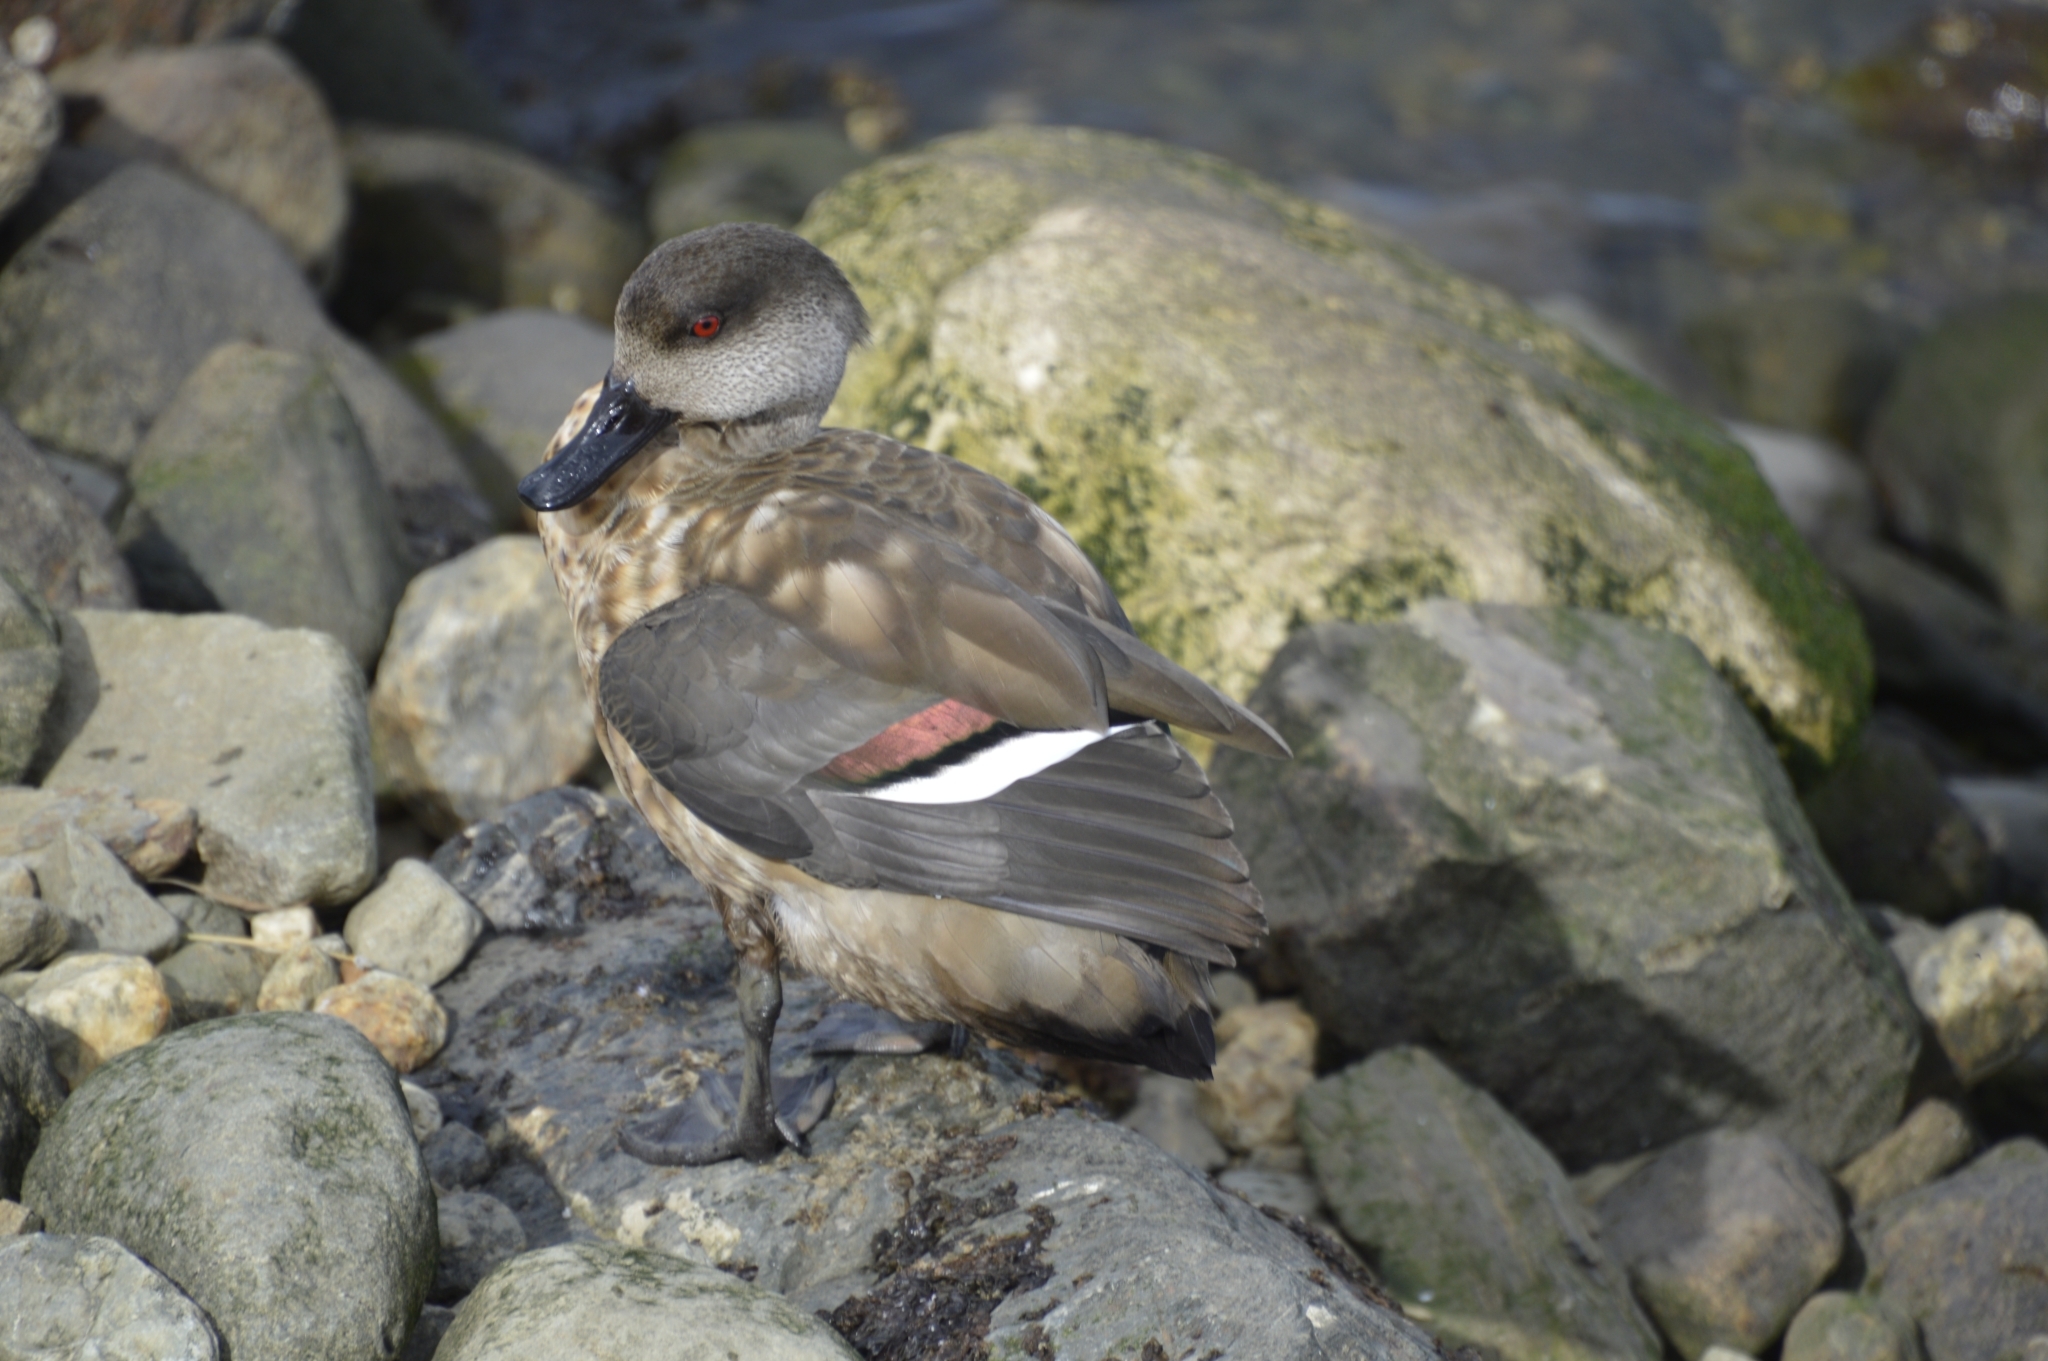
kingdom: Animalia
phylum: Chordata
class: Aves
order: Anseriformes
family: Anatidae
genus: Lophonetta
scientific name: Lophonetta specularioides
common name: Crested duck
